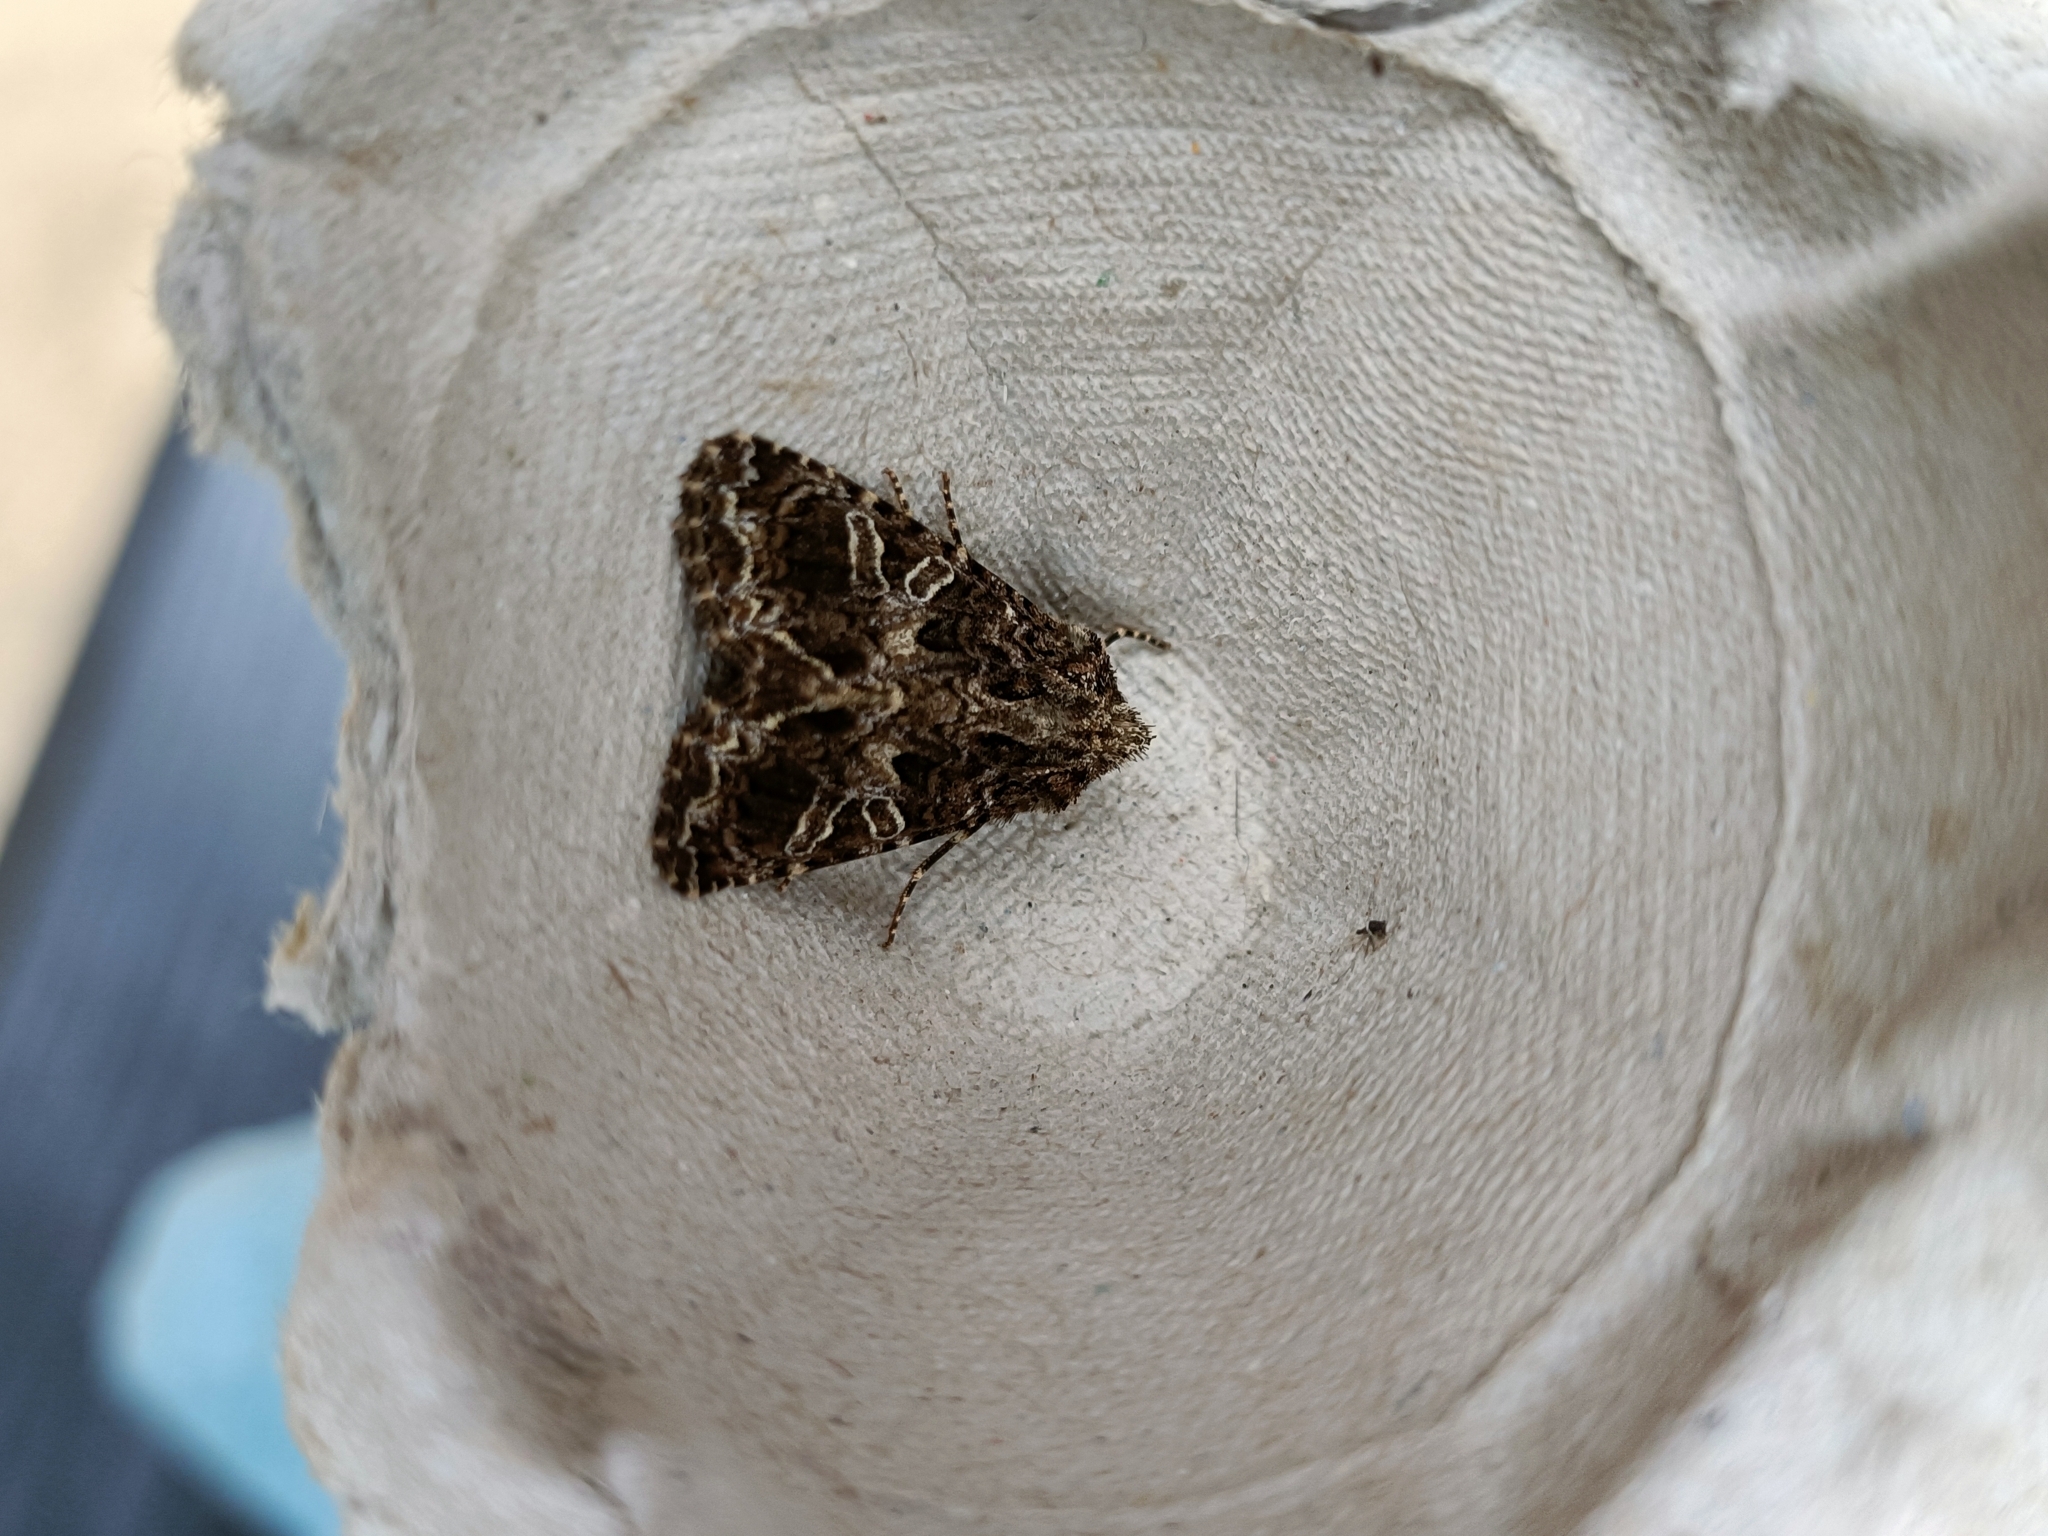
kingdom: Animalia
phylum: Arthropoda
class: Insecta
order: Lepidoptera
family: Noctuidae
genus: Hadena
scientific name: Hadena bicruris
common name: Lychnis
